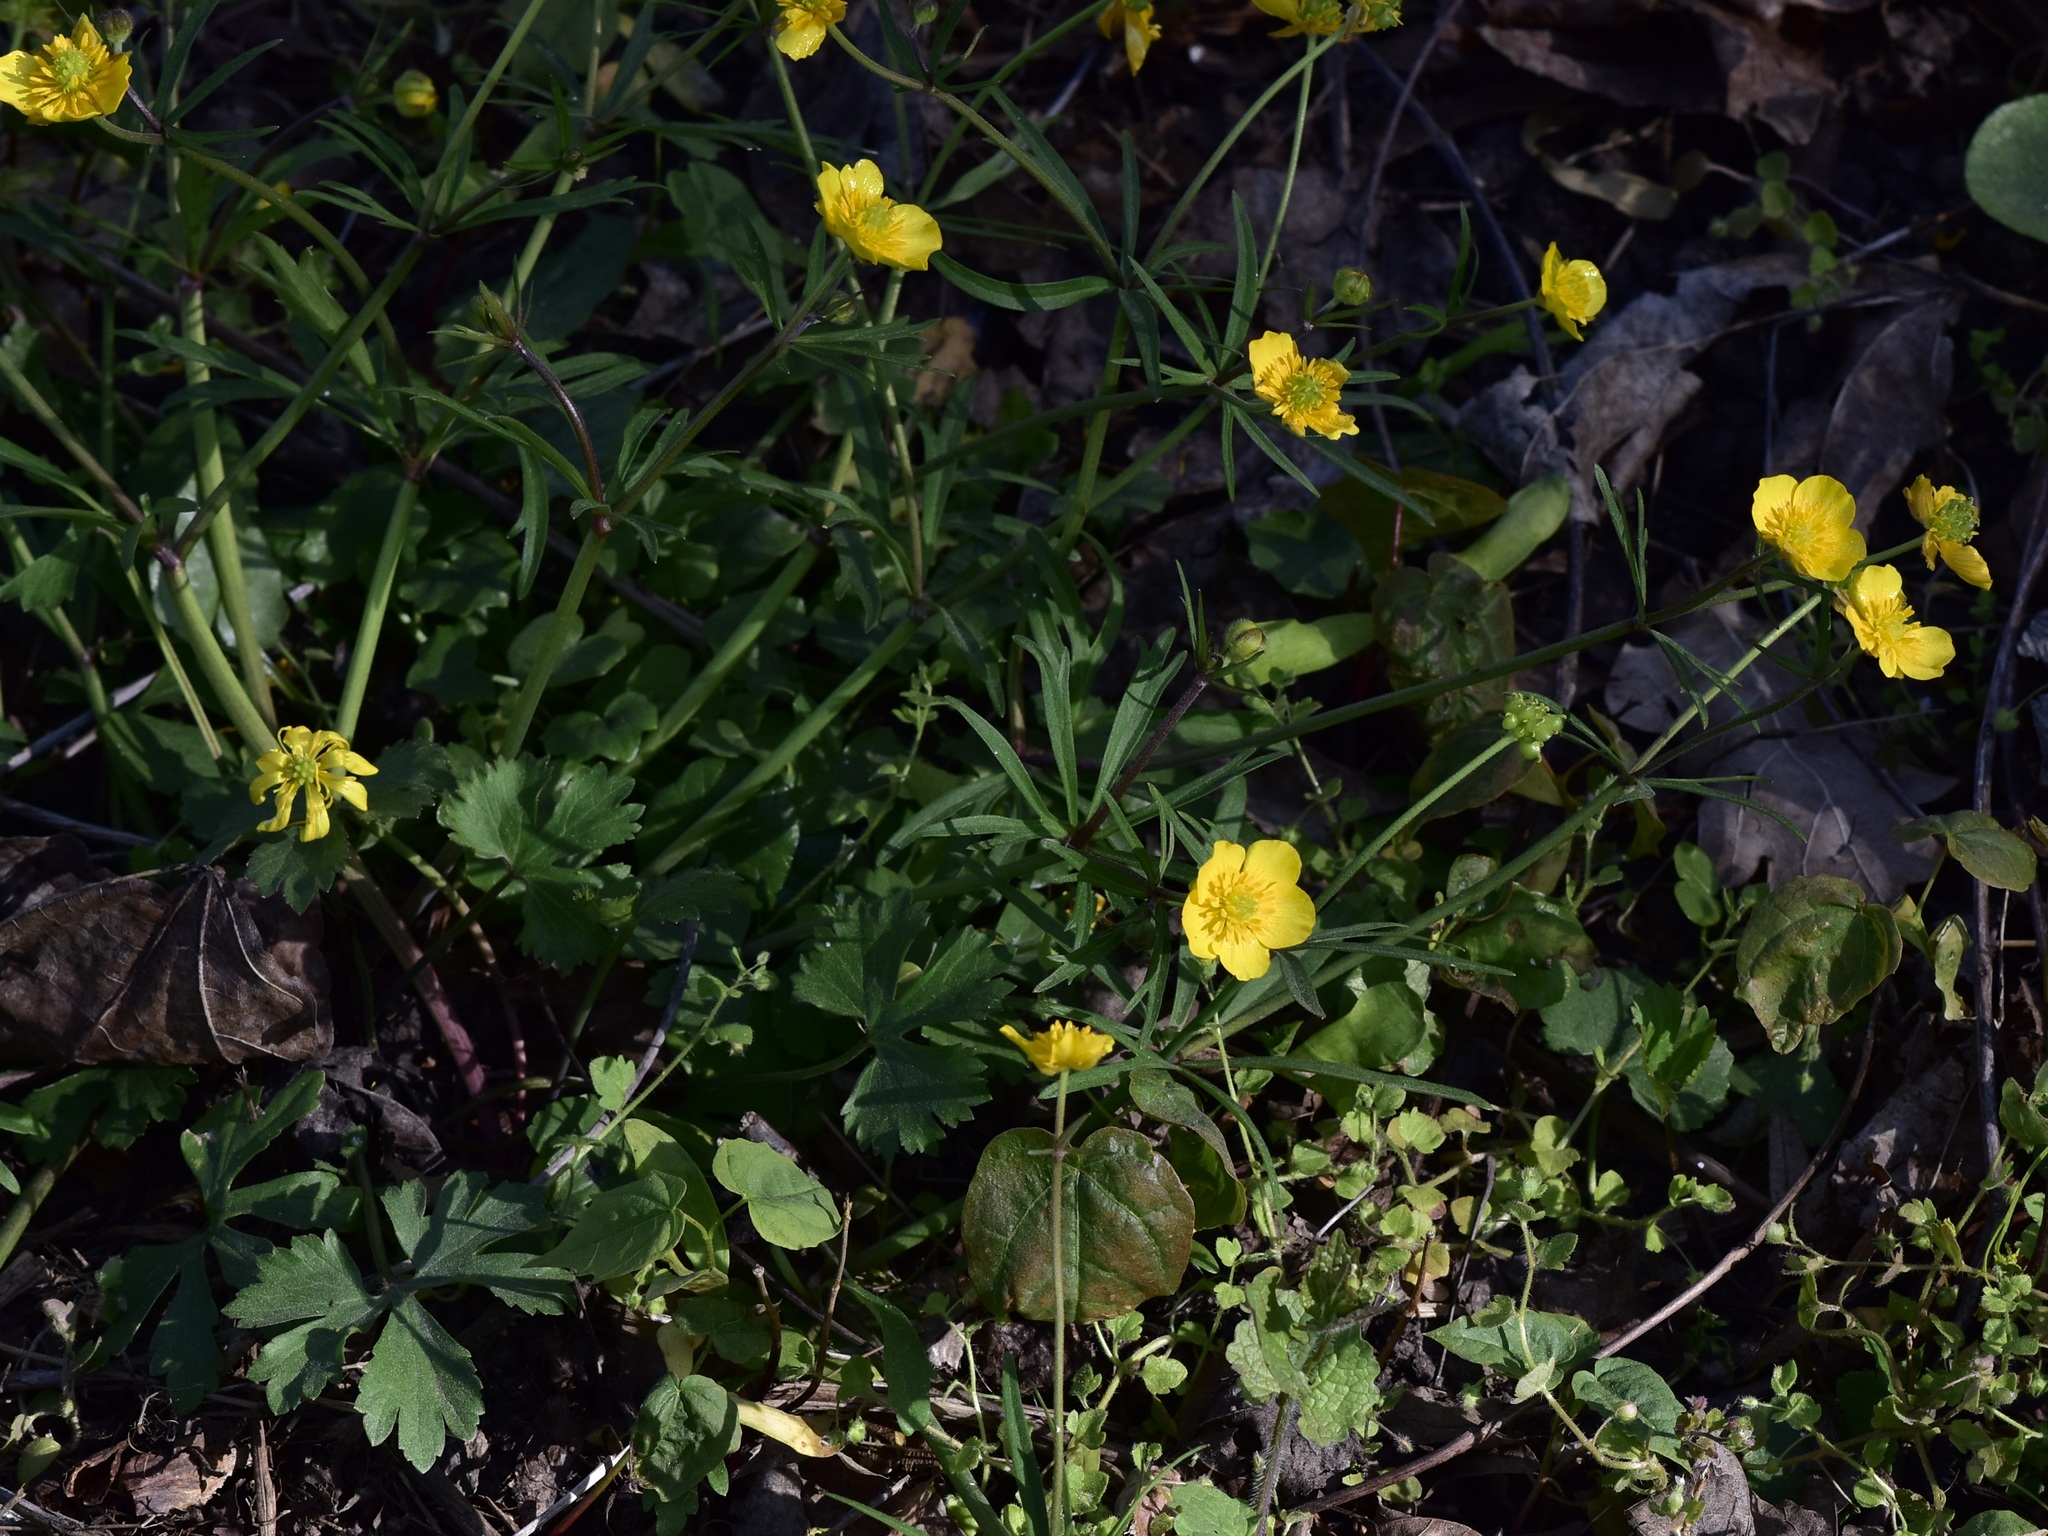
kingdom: Plantae
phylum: Tracheophyta
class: Magnoliopsida
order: Ranunculales
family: Ranunculaceae
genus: Ranunculus
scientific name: Ranunculus auricomus
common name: Goldilocks buttercup
